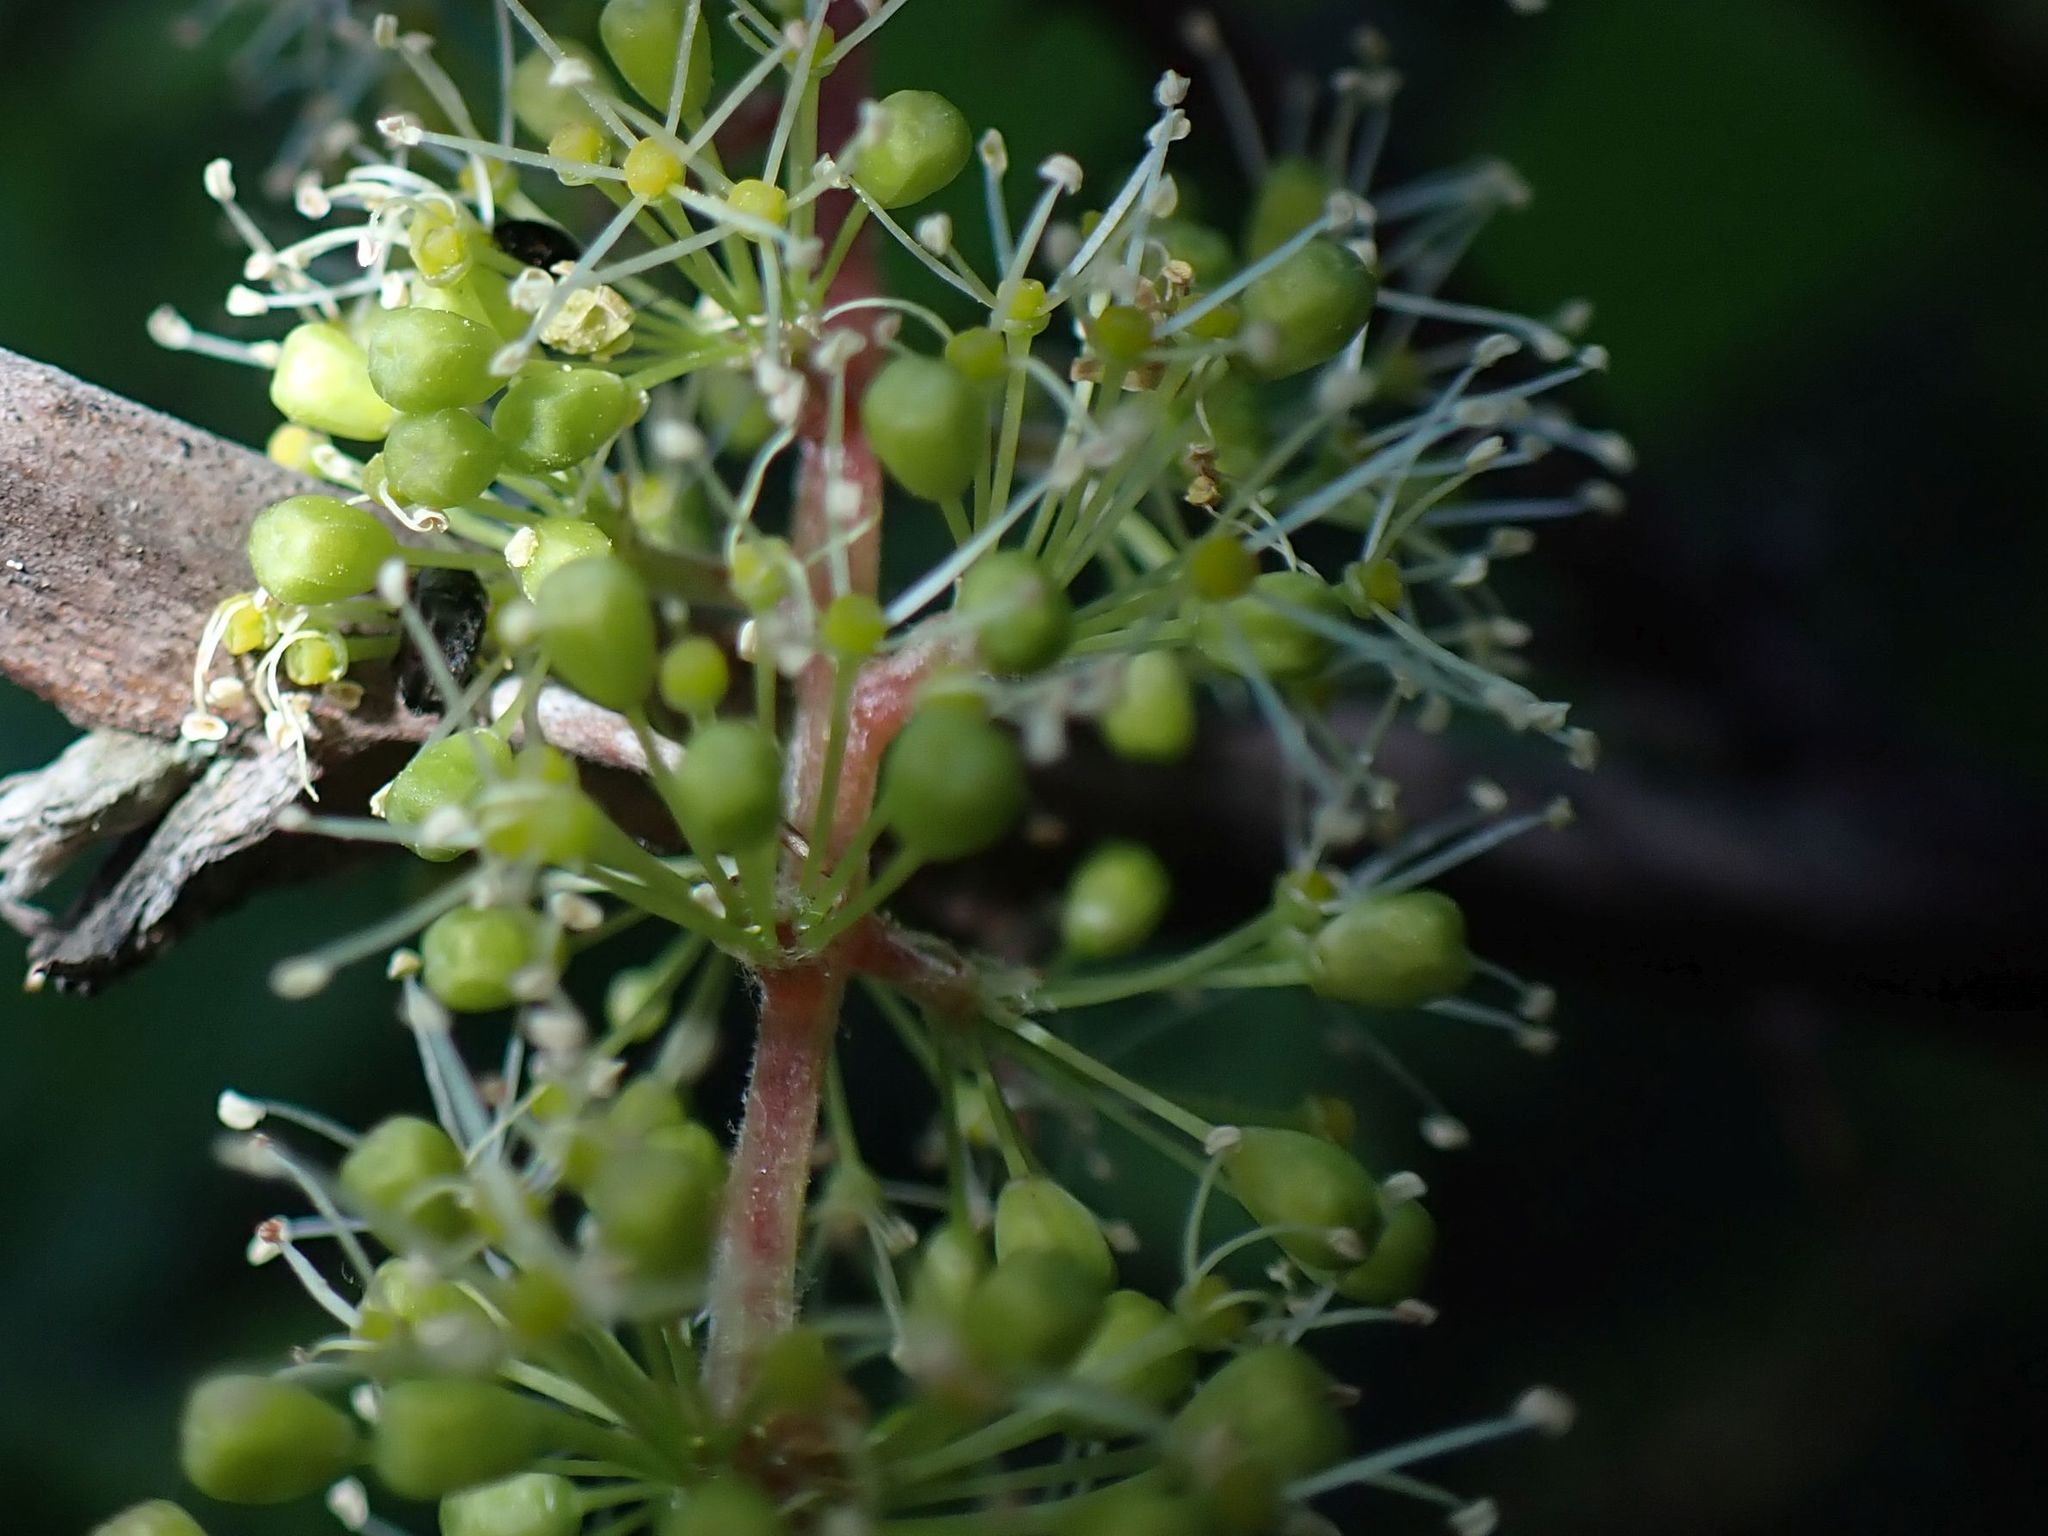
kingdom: Plantae
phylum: Tracheophyta
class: Magnoliopsida
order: Vitales
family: Vitaceae
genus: Vitis
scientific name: Vitis vinifera
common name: Grape-vine
